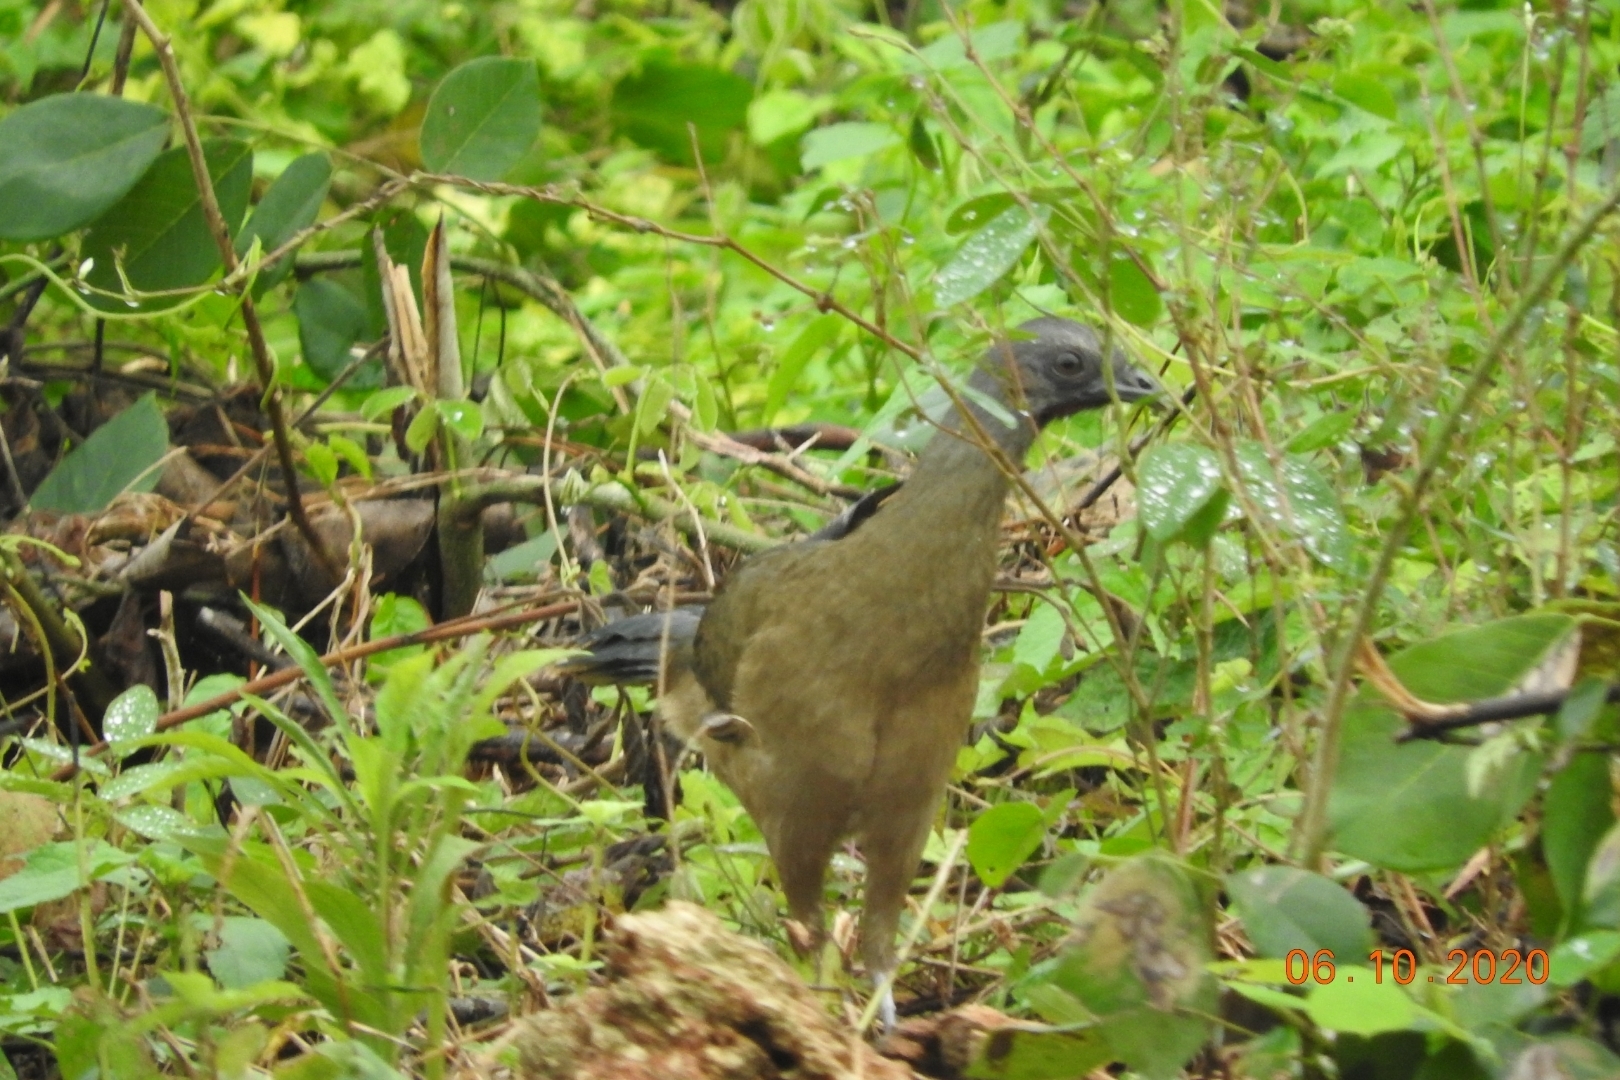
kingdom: Animalia
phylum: Chordata
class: Aves
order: Galliformes
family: Cracidae
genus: Ortalis
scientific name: Ortalis vetula
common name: Plain chachalaca
